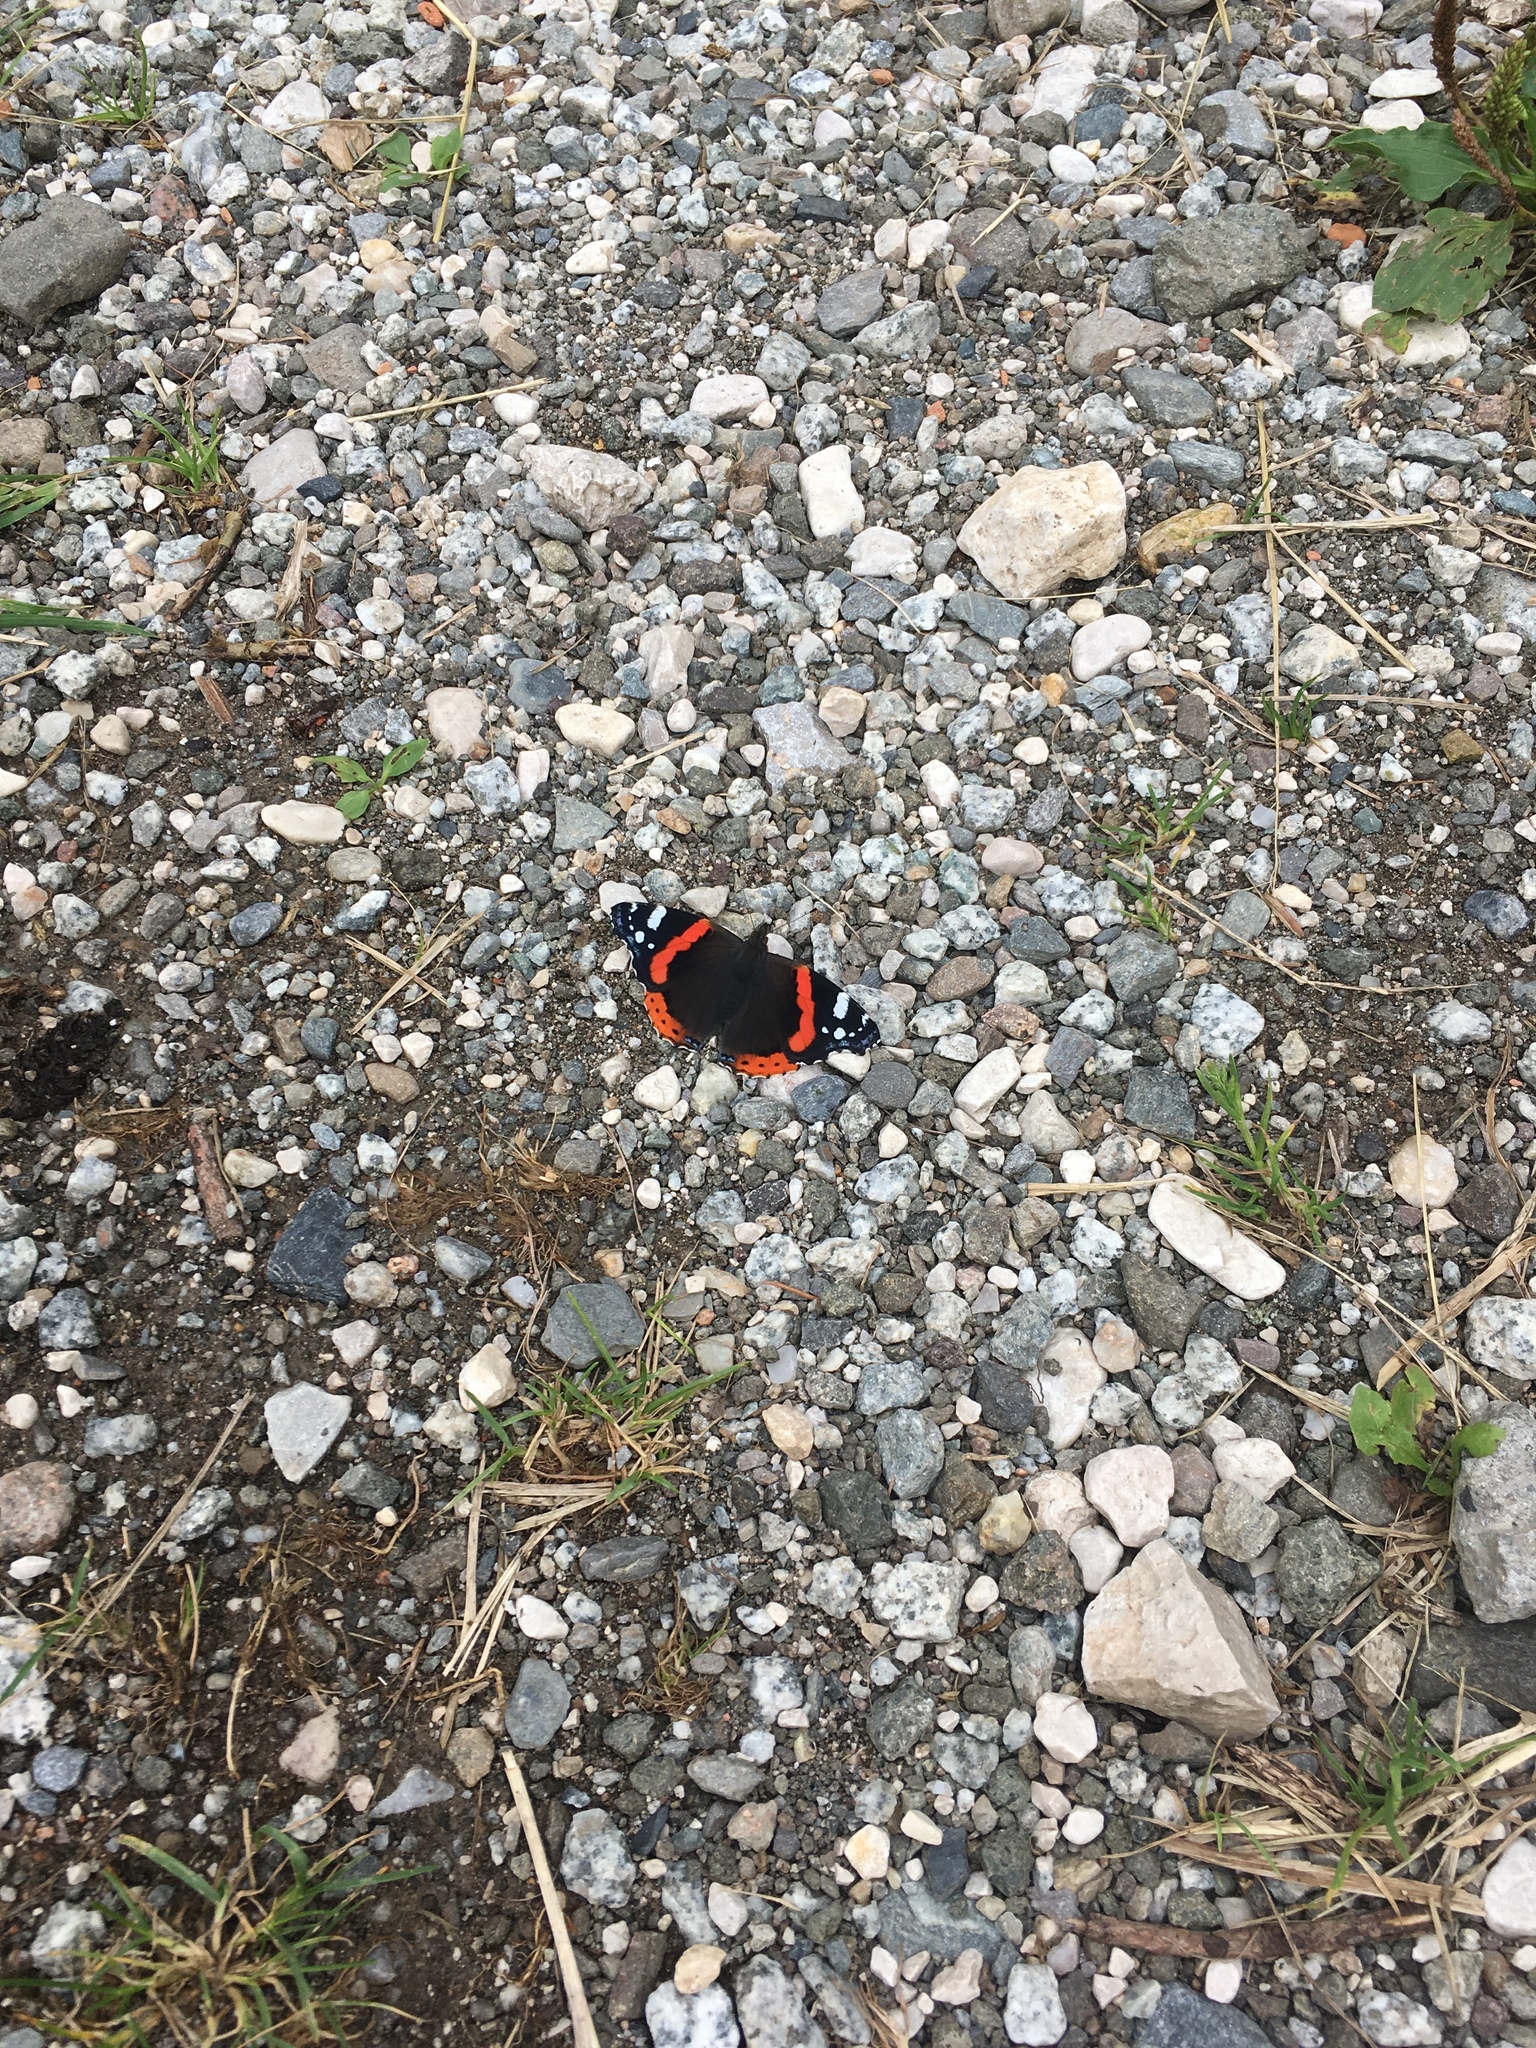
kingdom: Animalia
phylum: Arthropoda
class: Insecta
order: Lepidoptera
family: Nymphalidae
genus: Vanessa
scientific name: Vanessa atalanta
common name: Red admiral
